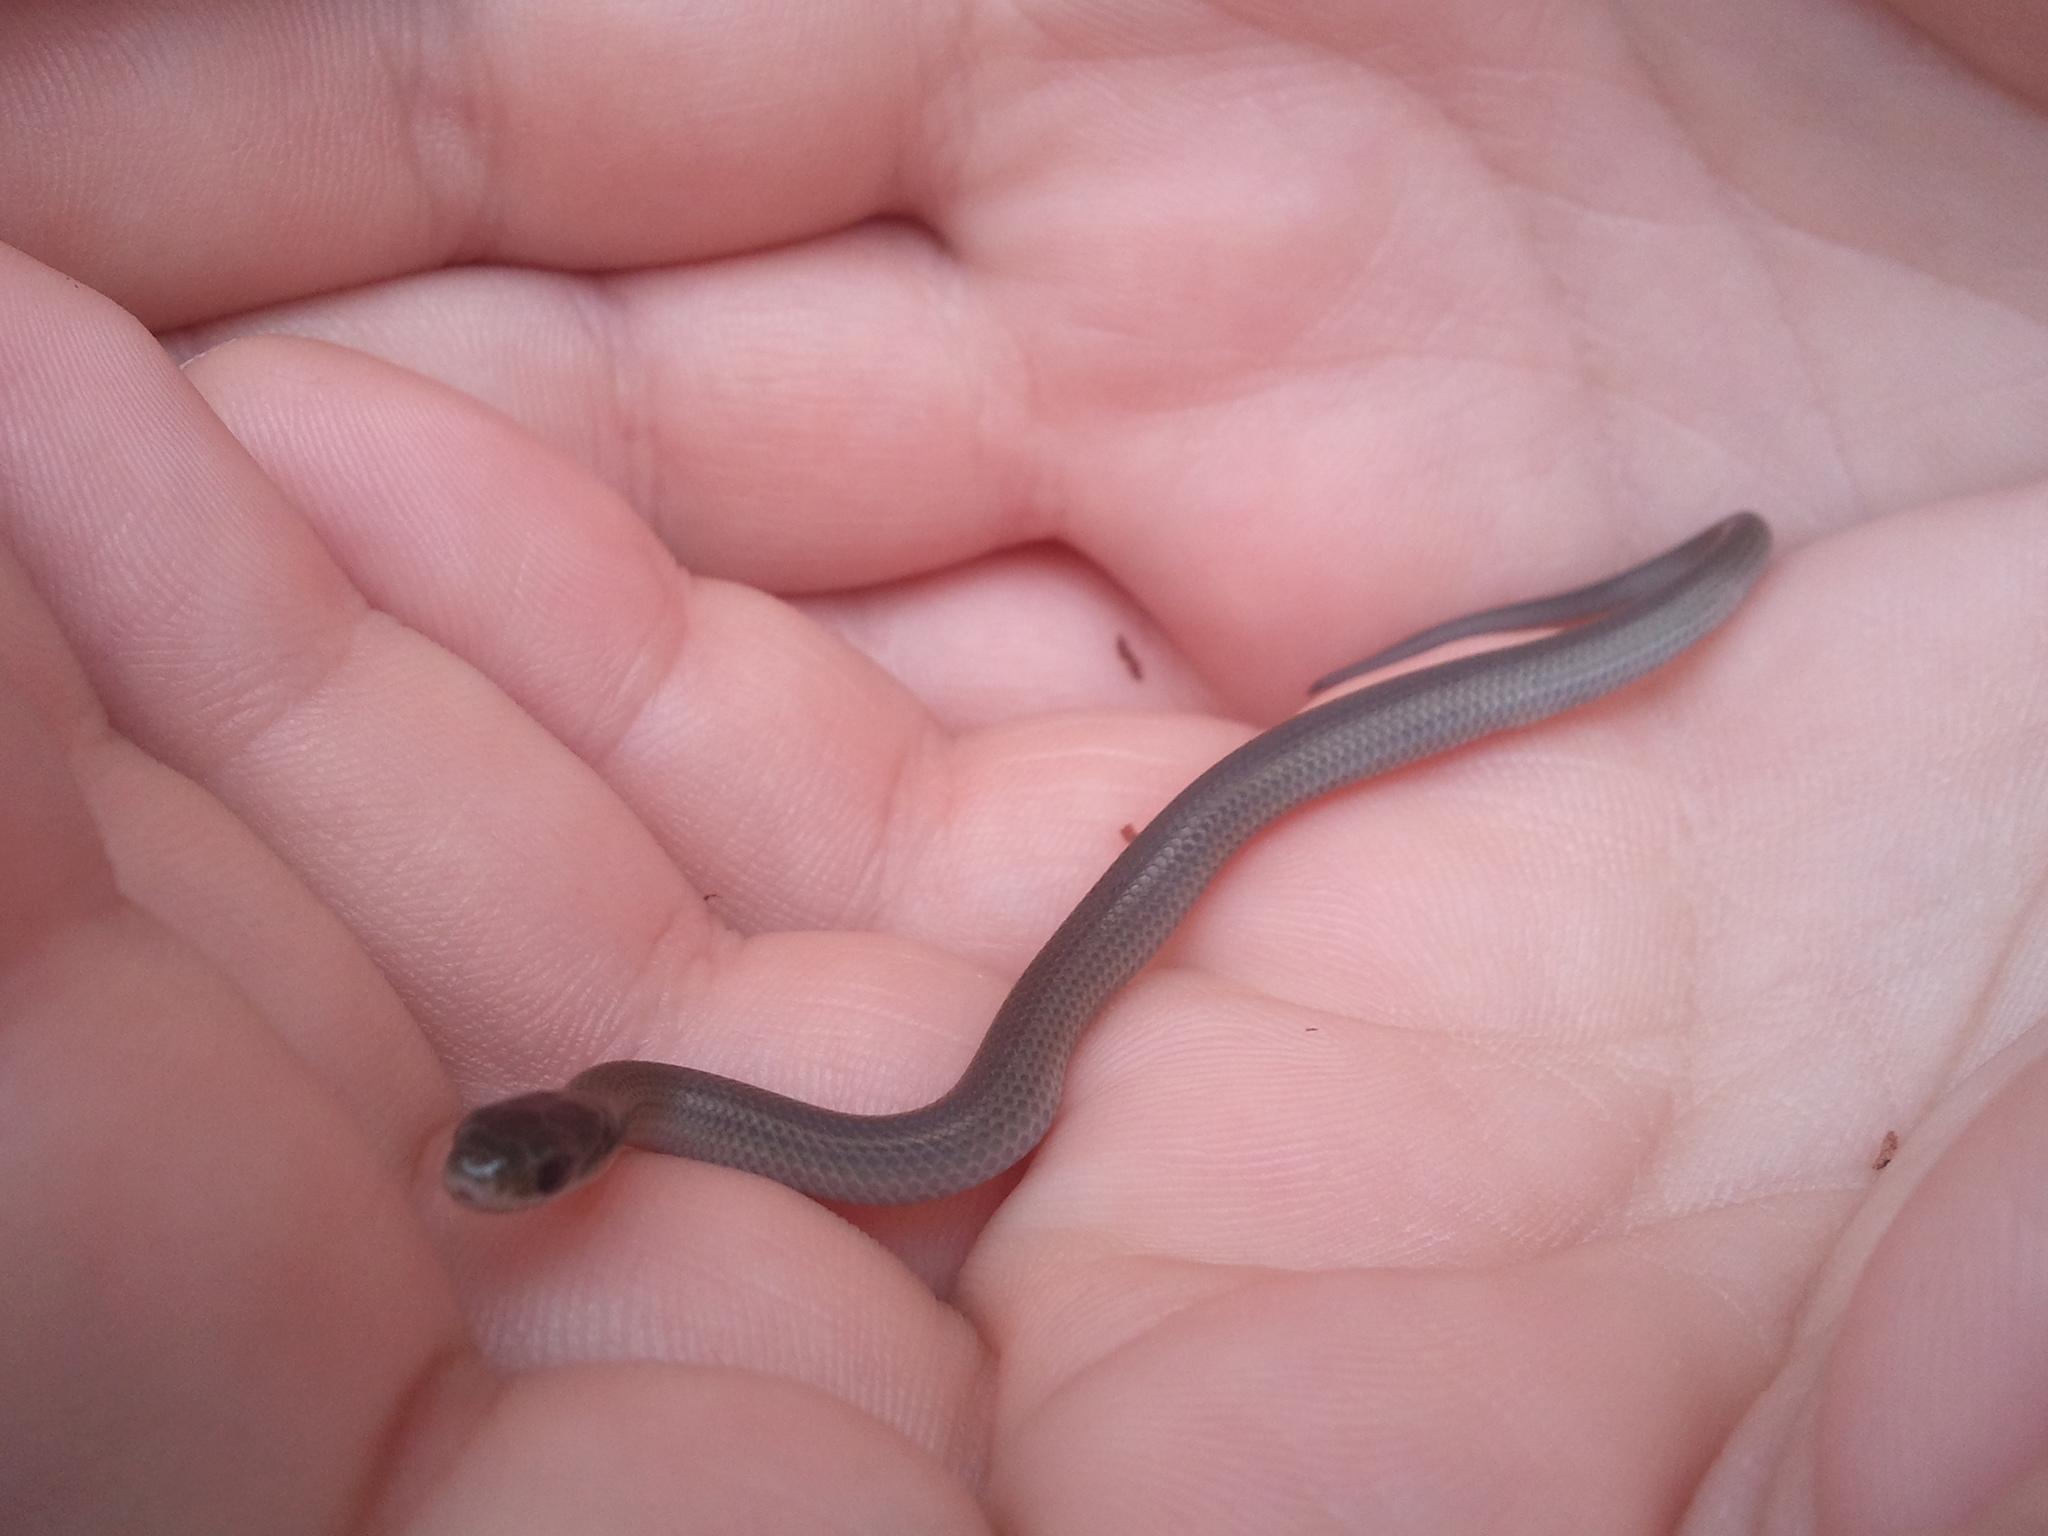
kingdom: Animalia
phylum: Chordata
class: Squamata
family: Colubridae
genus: Opheodrys
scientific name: Opheodrys vernalis
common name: Smooth green snake
